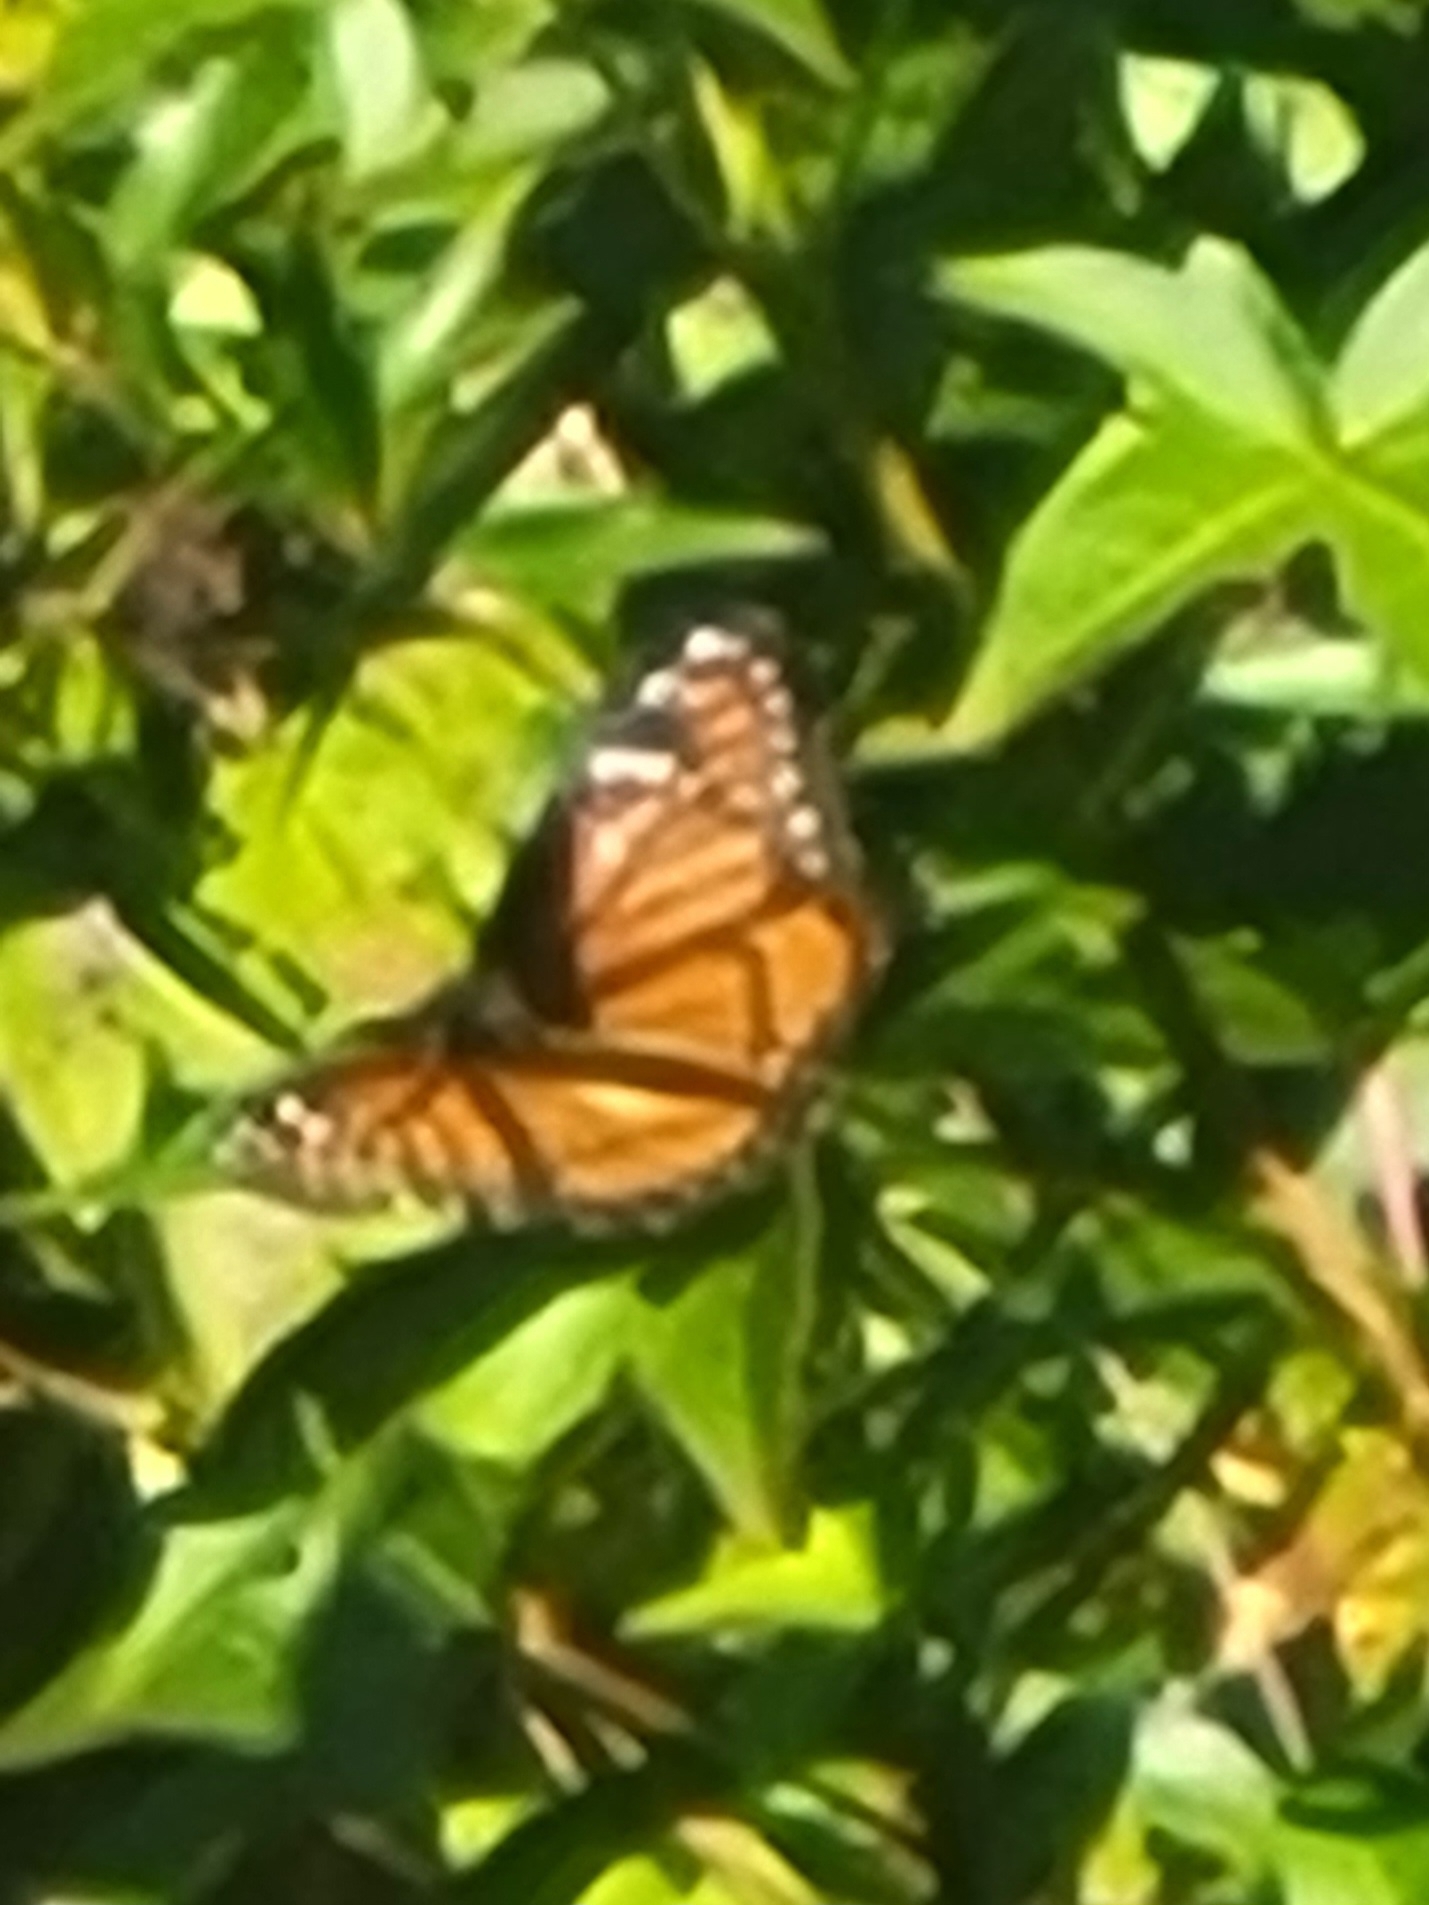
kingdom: Animalia
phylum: Arthropoda
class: Insecta
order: Lepidoptera
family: Nymphalidae
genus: Limenitis
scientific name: Limenitis archippus
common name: Viceroy
